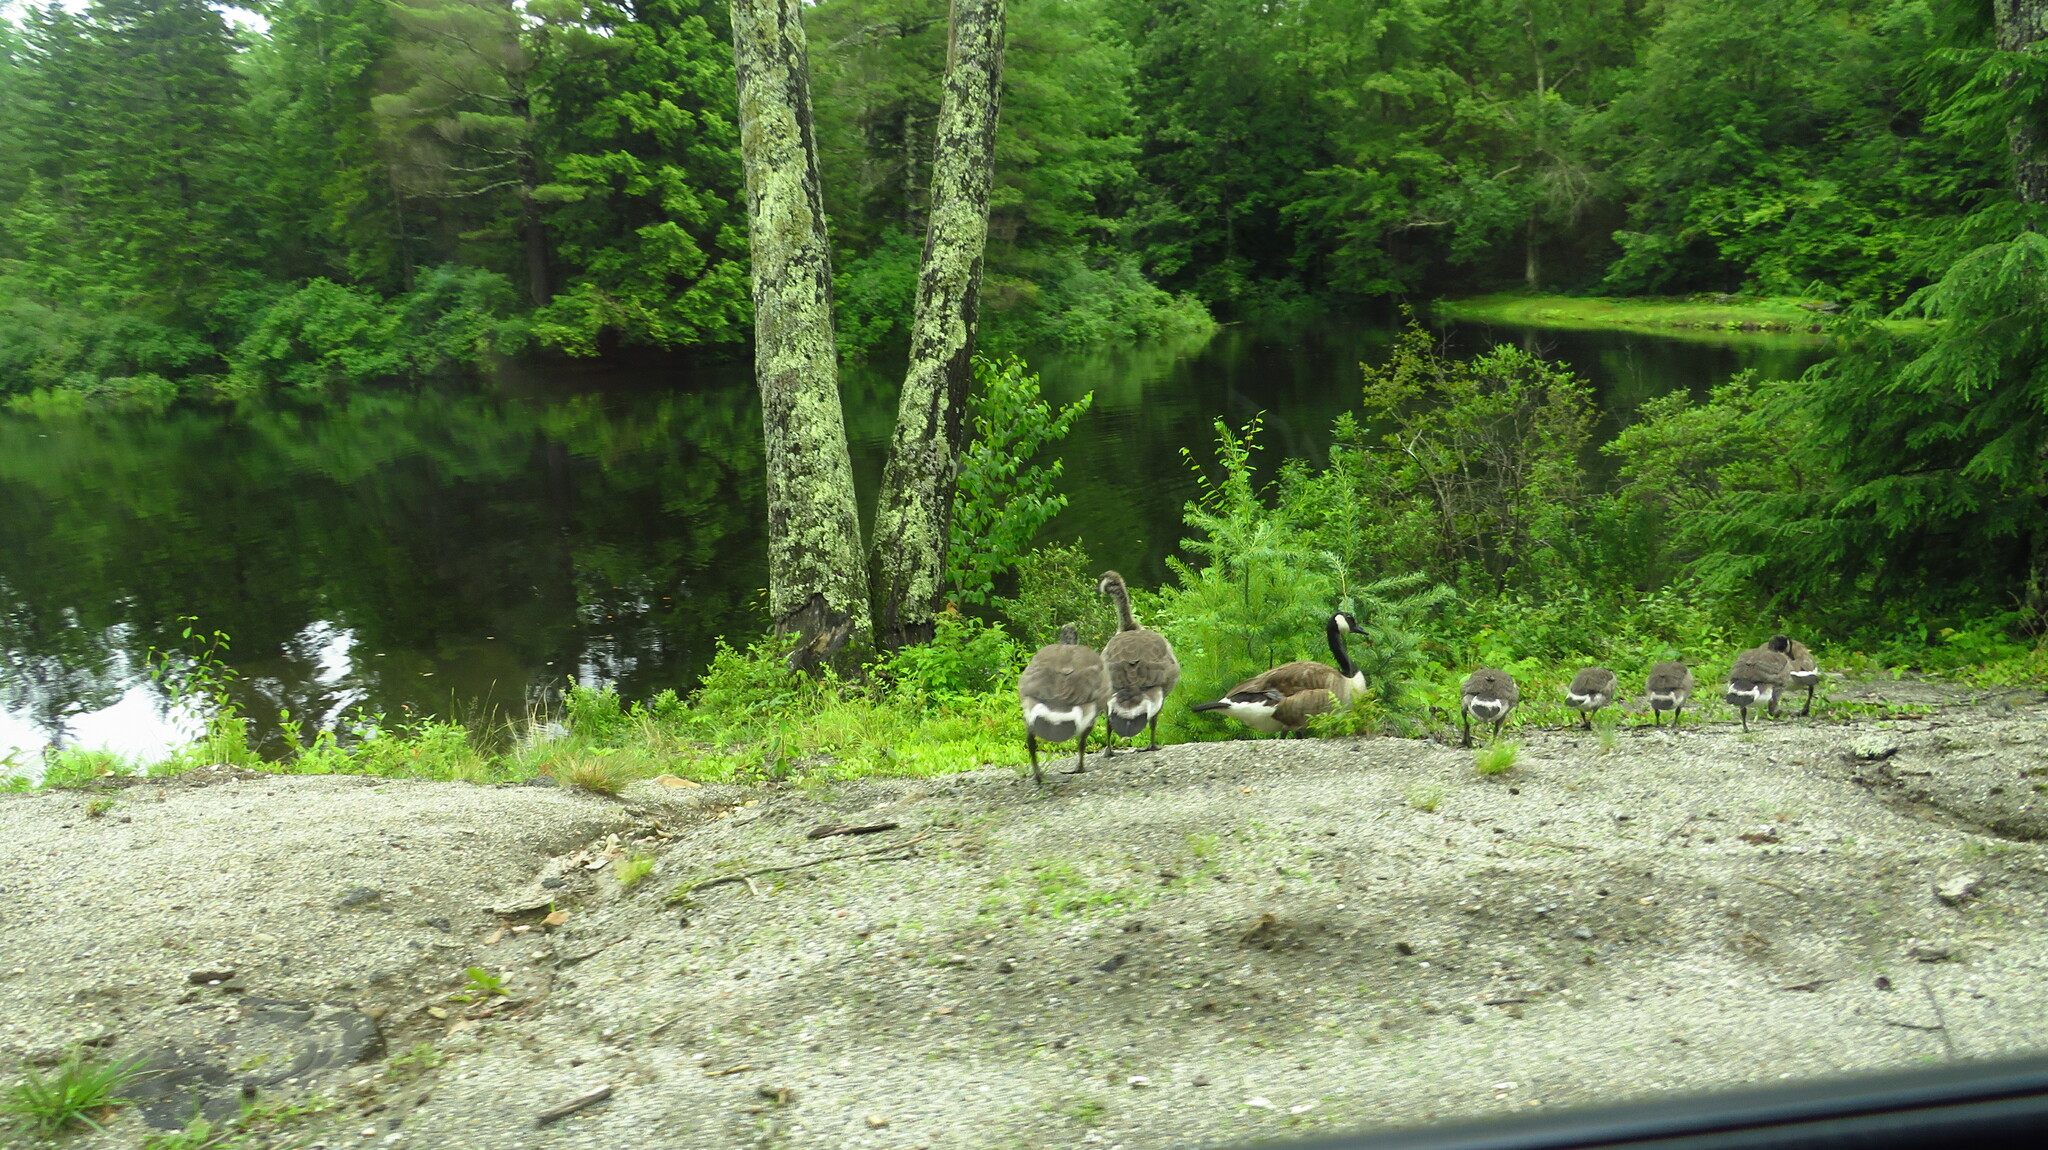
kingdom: Animalia
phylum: Chordata
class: Aves
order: Anseriformes
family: Anatidae
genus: Branta
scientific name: Branta canadensis
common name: Canada goose
